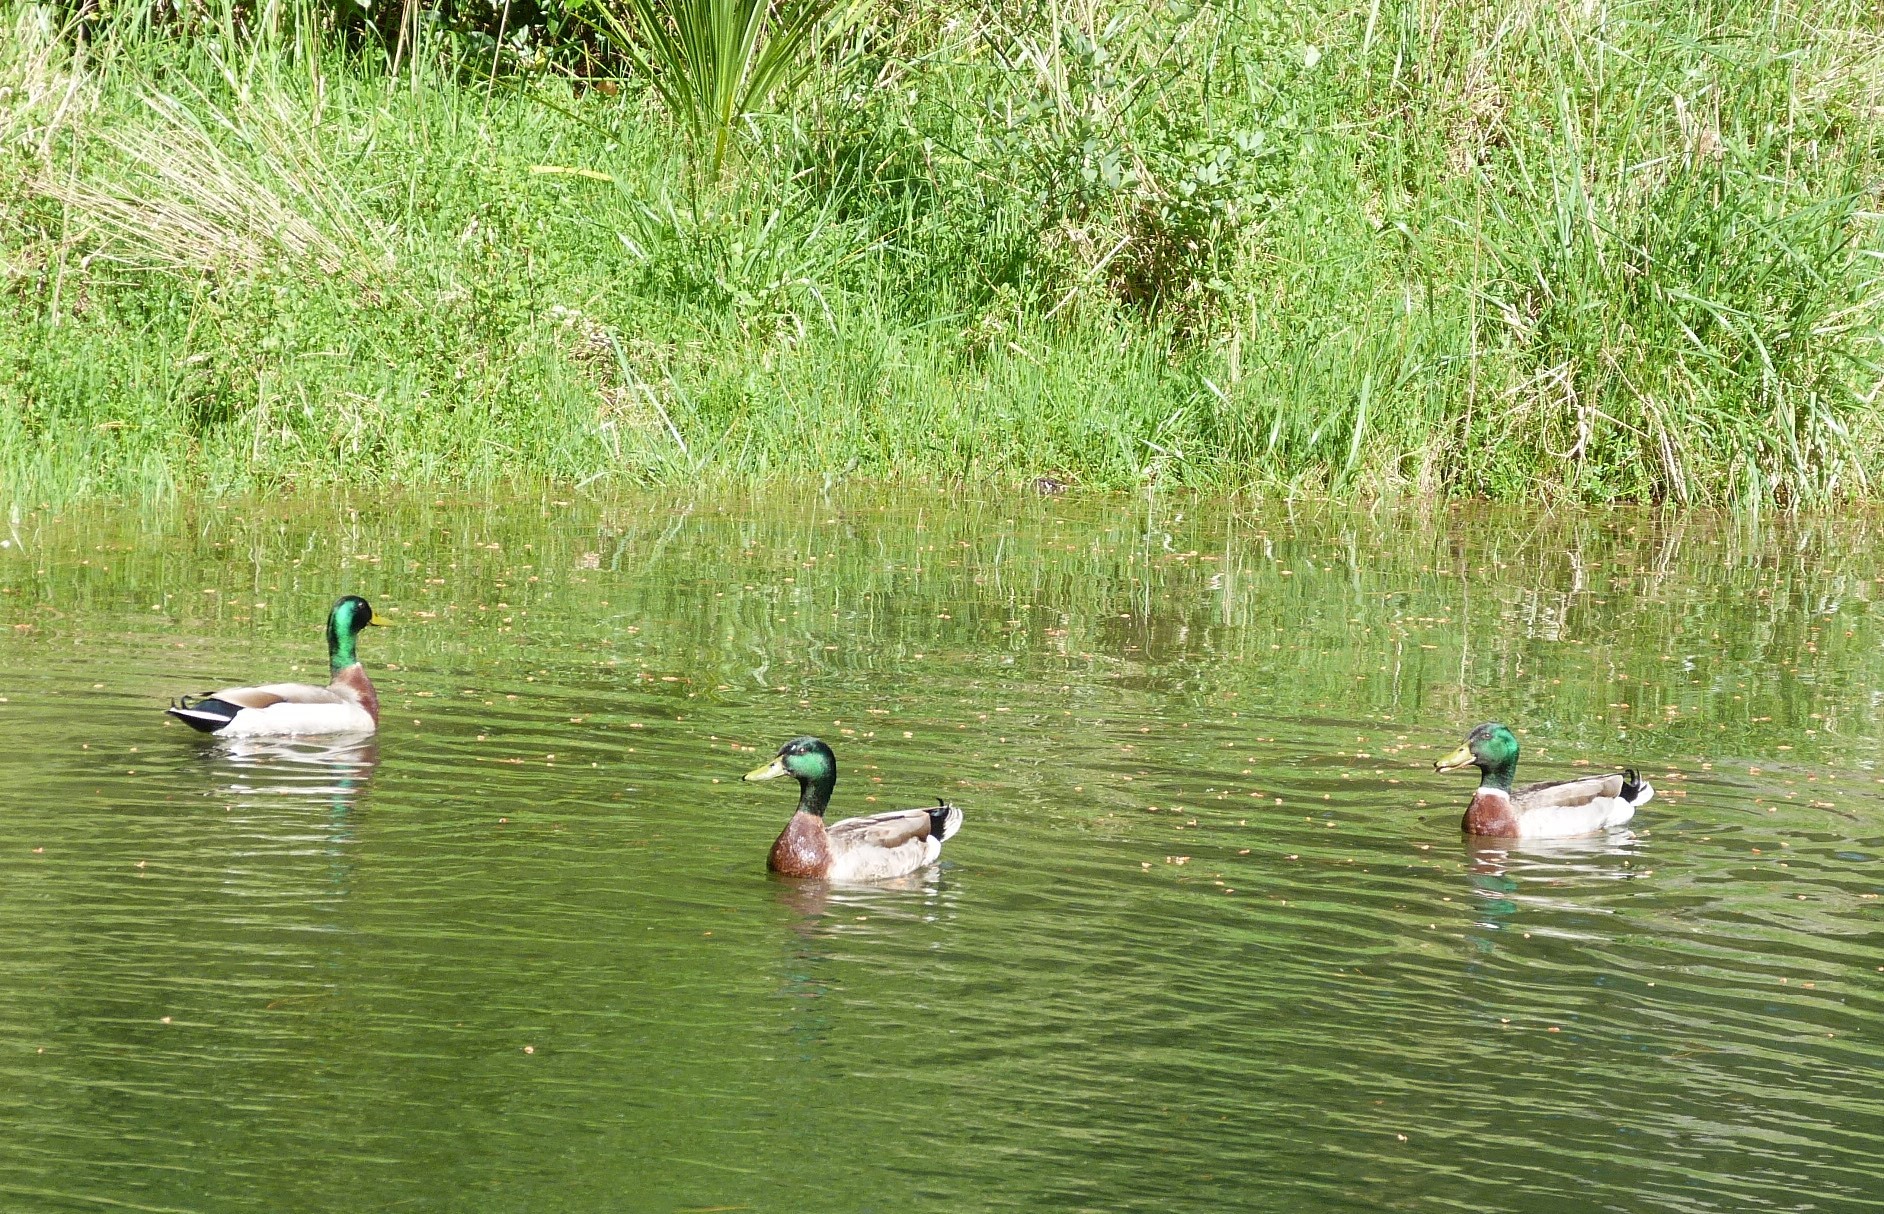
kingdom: Animalia
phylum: Chordata
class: Aves
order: Anseriformes
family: Anatidae
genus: Anas
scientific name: Anas platyrhynchos
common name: Mallard
